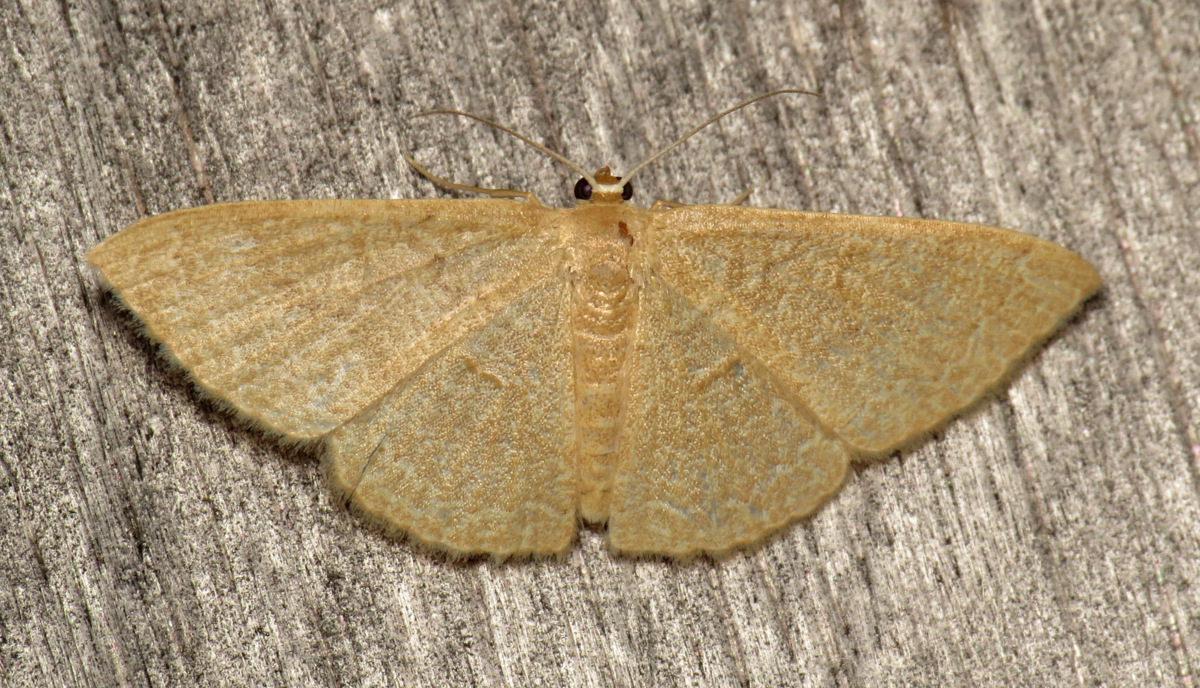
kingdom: Animalia
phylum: Arthropoda
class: Insecta
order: Lepidoptera
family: Geometridae
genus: Pleuroprucha
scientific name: Pleuroprucha insulsaria
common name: Common tan wave
